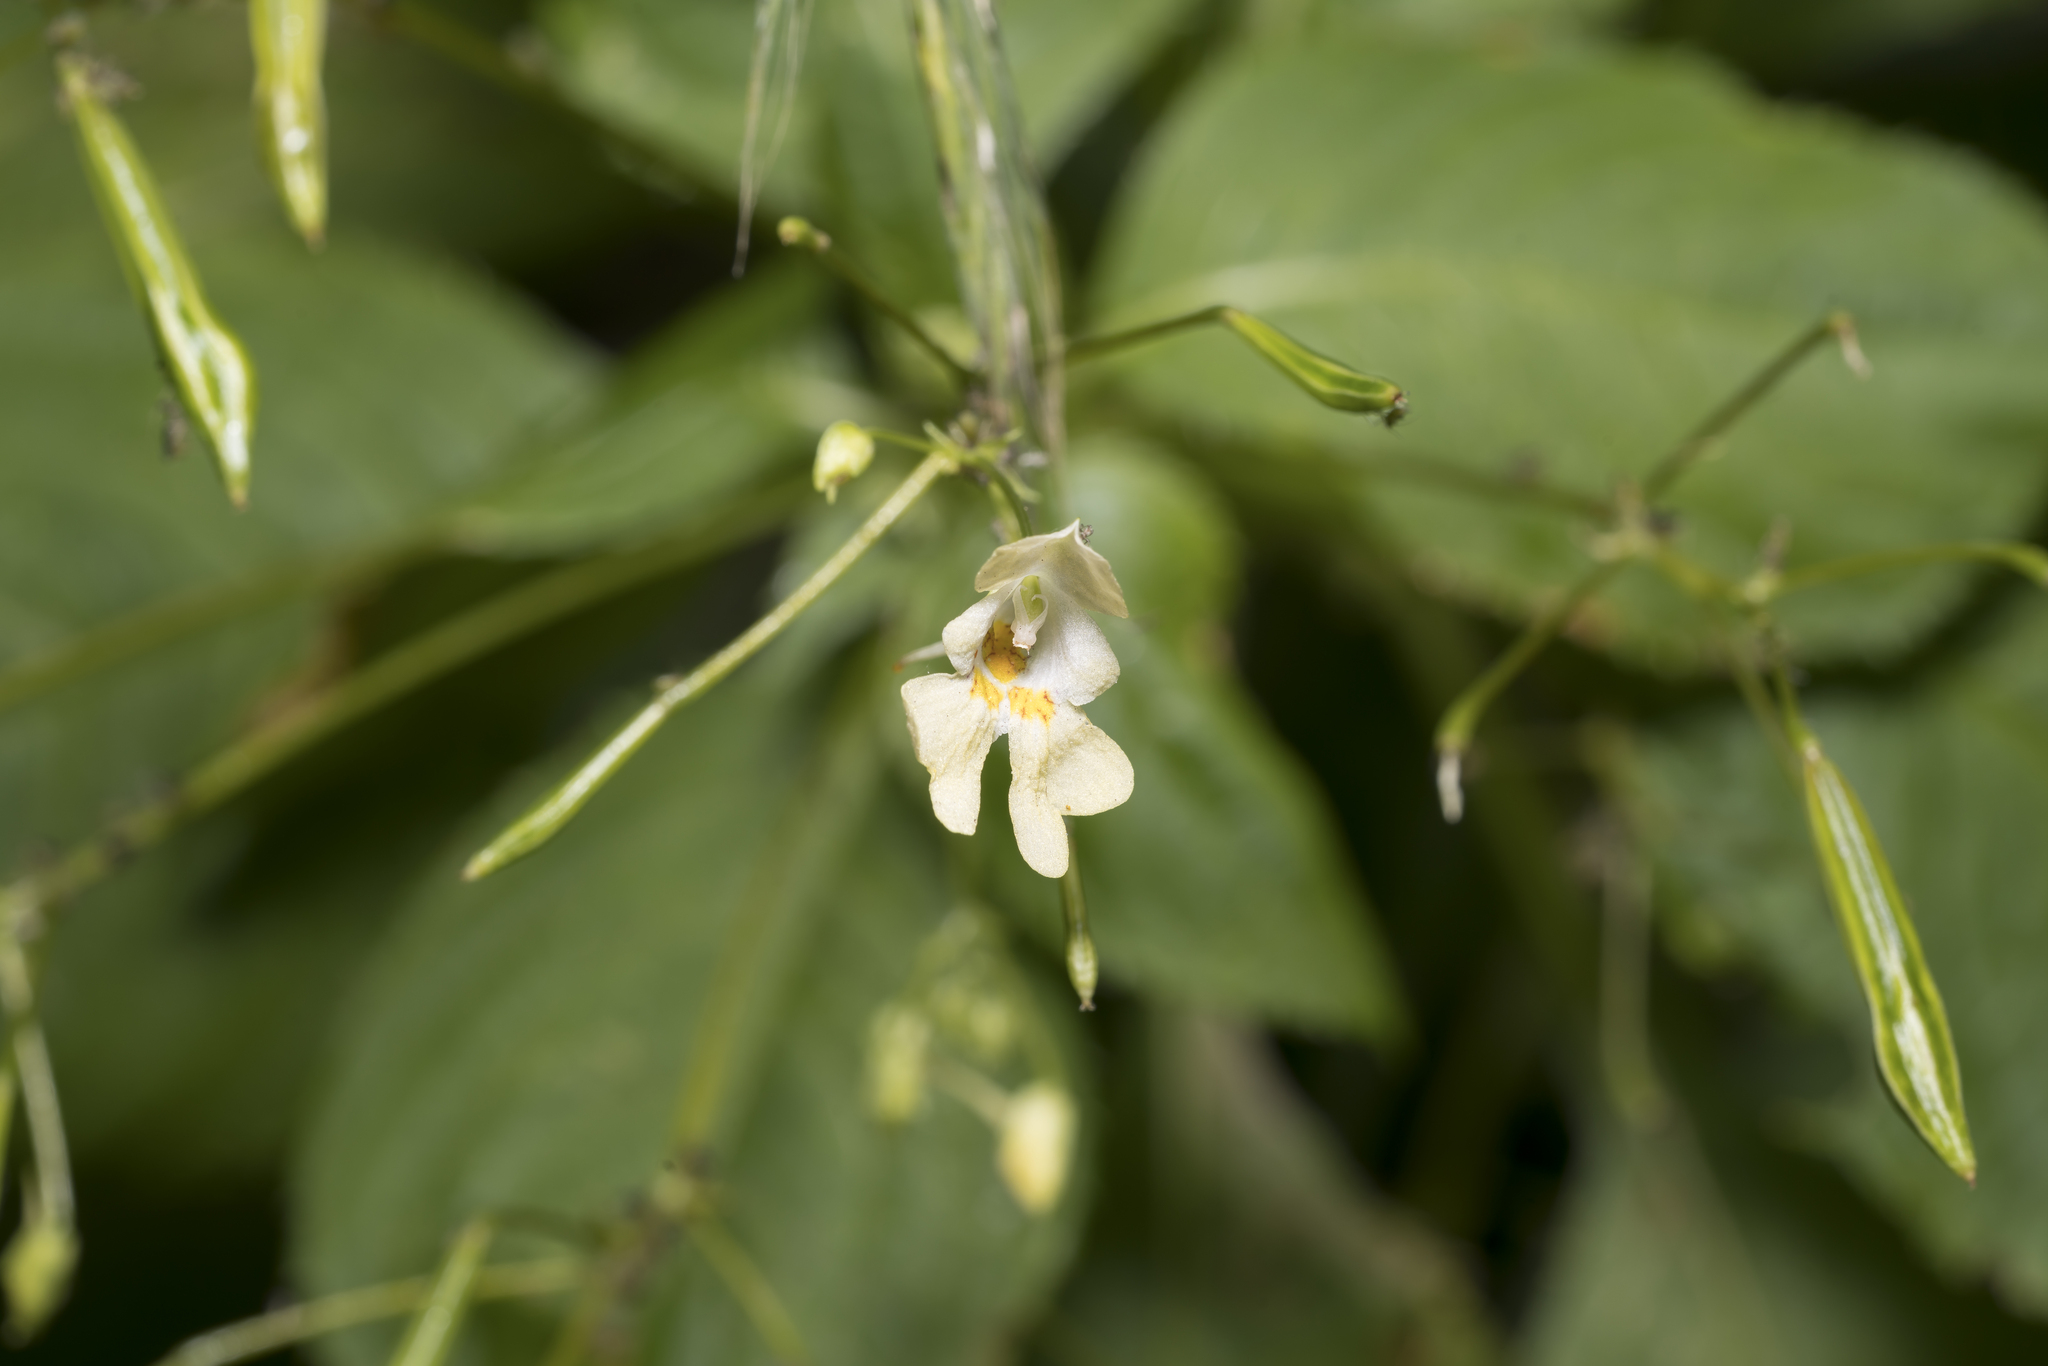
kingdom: Plantae
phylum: Tracheophyta
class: Magnoliopsida
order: Ericales
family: Balsaminaceae
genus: Impatiens
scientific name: Impatiens parviflora
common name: Small balsam
